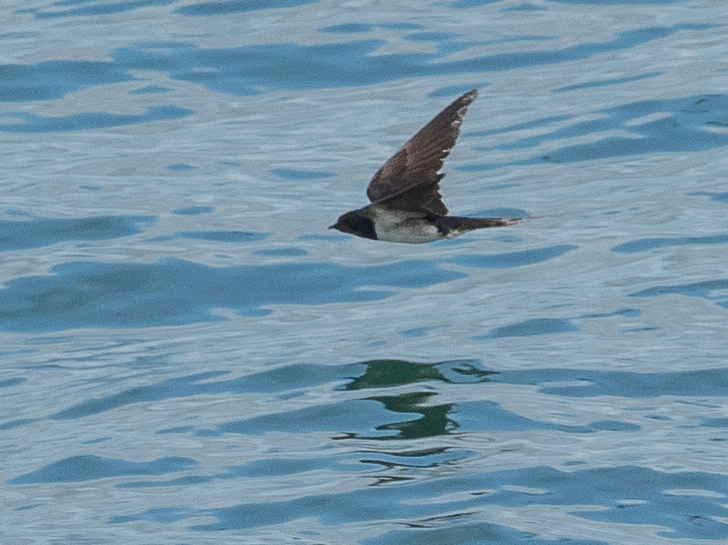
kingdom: Animalia
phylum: Chordata
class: Aves
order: Passeriformes
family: Hirundinidae
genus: Hirundo
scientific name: Hirundo rustica
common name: Barn swallow
